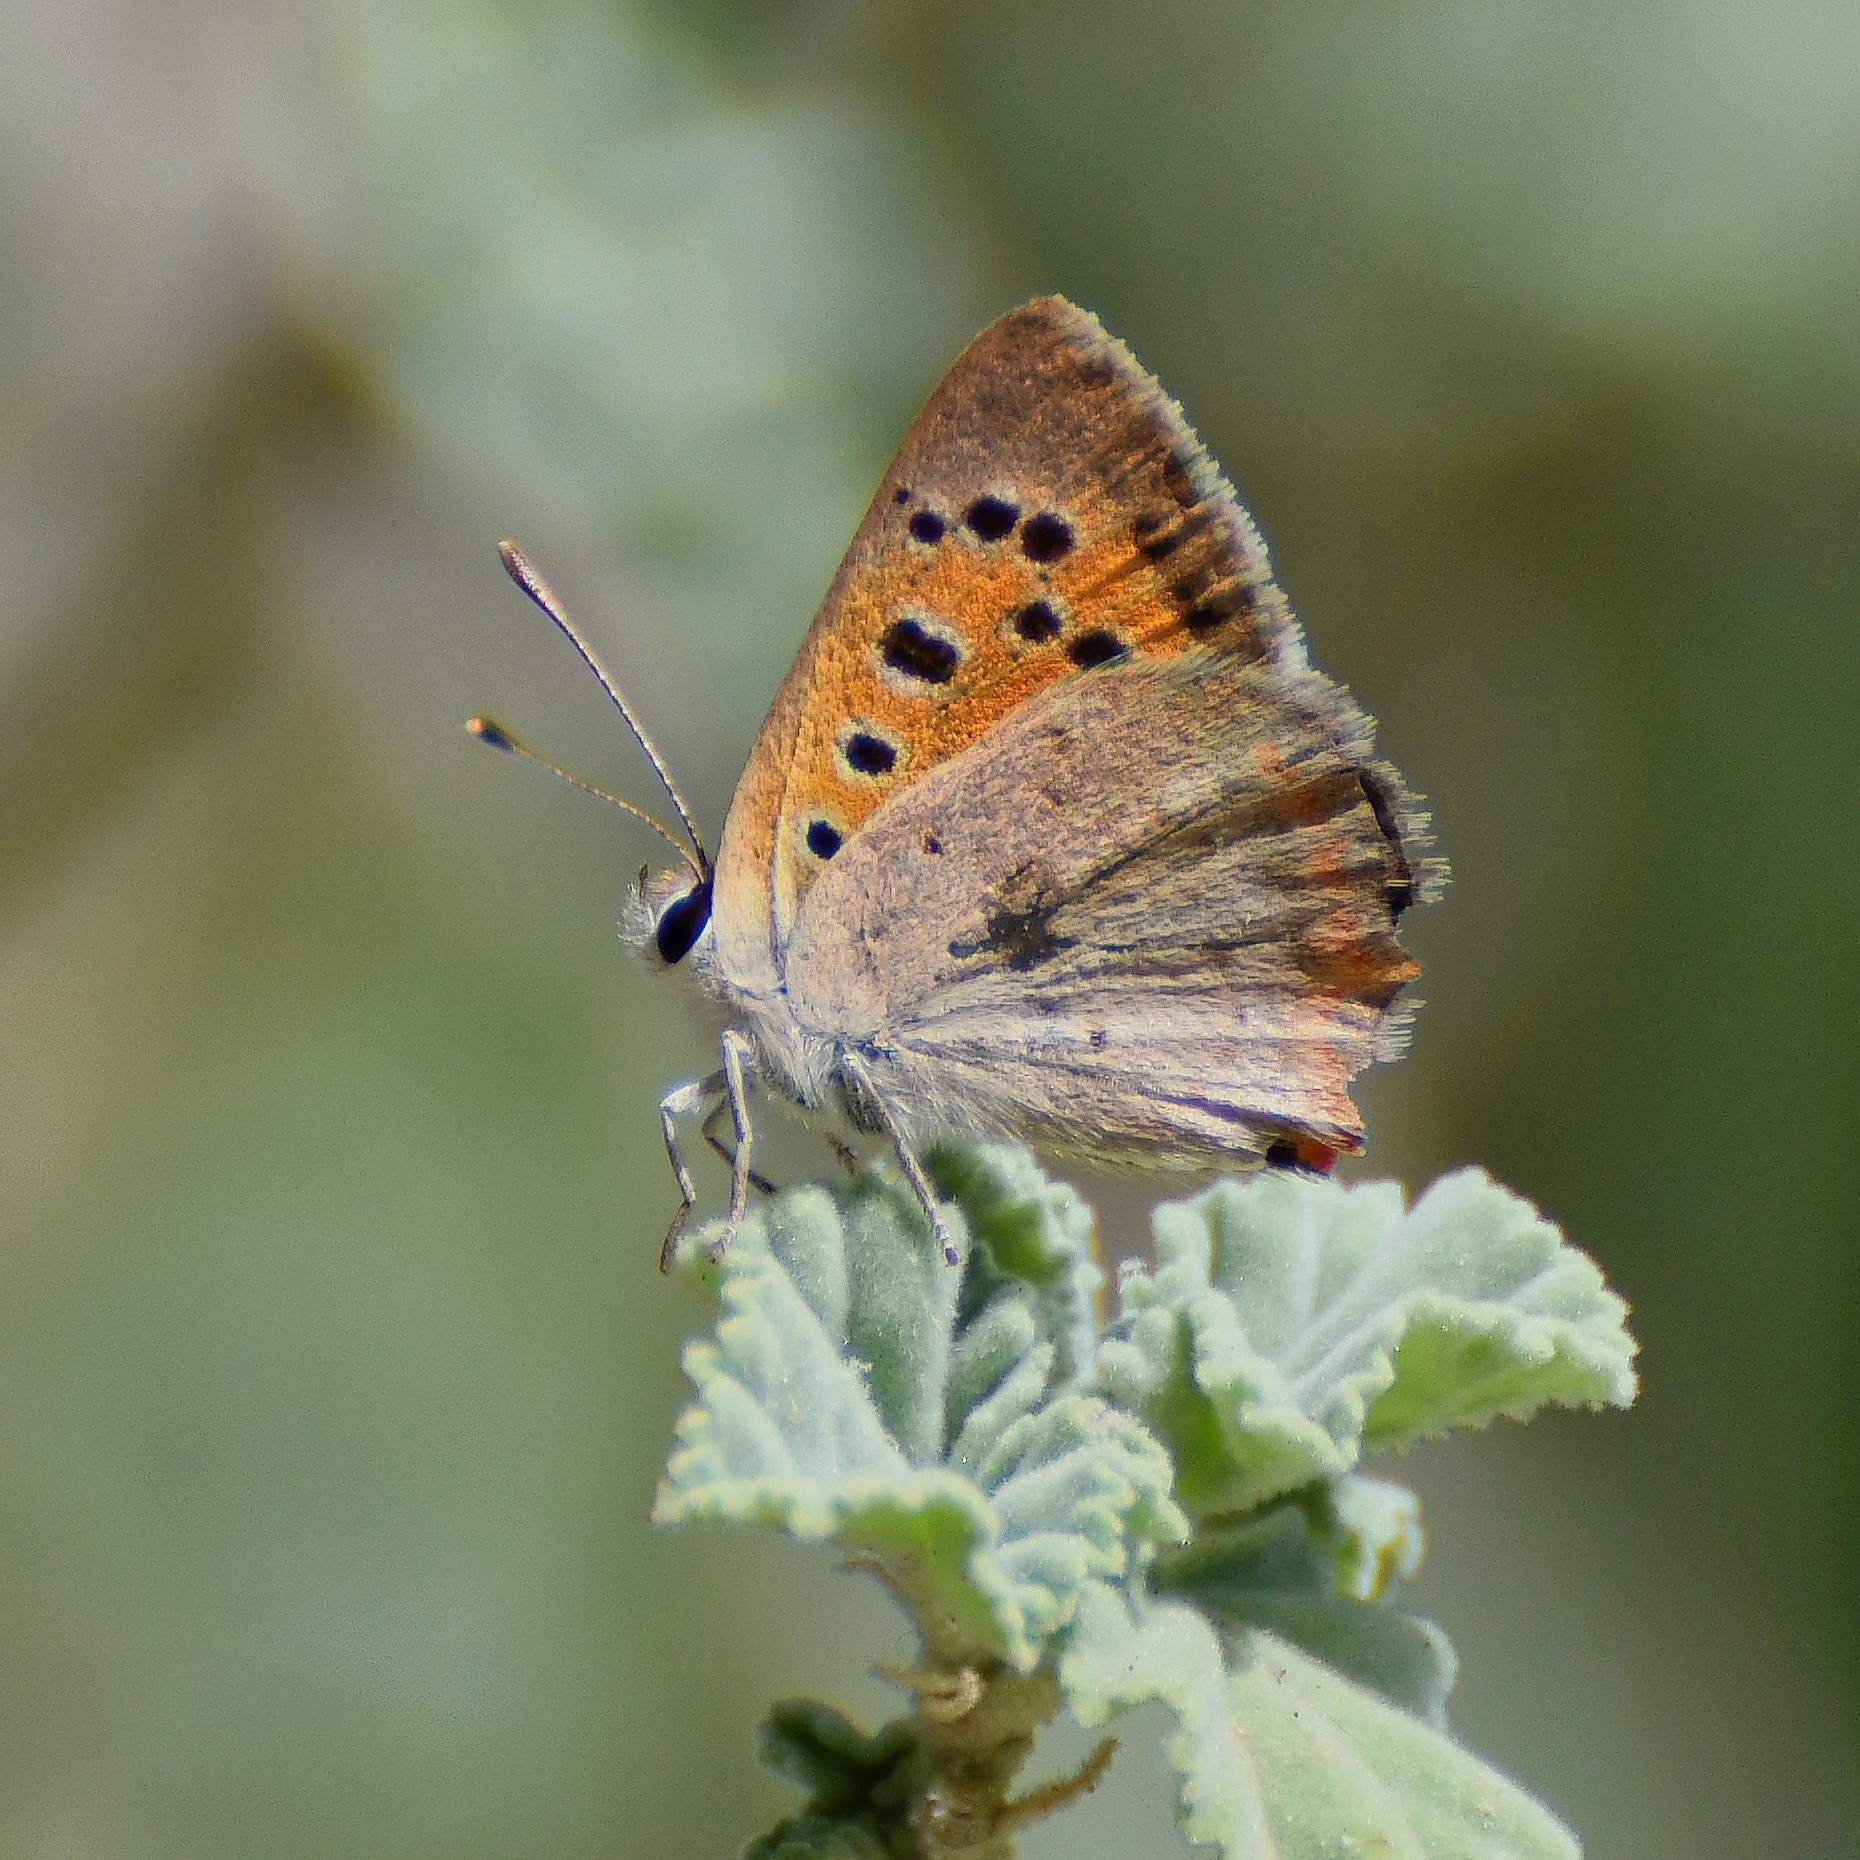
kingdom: Animalia
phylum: Arthropoda
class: Insecta
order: Lepidoptera
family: Lycaenidae
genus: Lycaena
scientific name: Lycaena phlaeas
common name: Small copper
